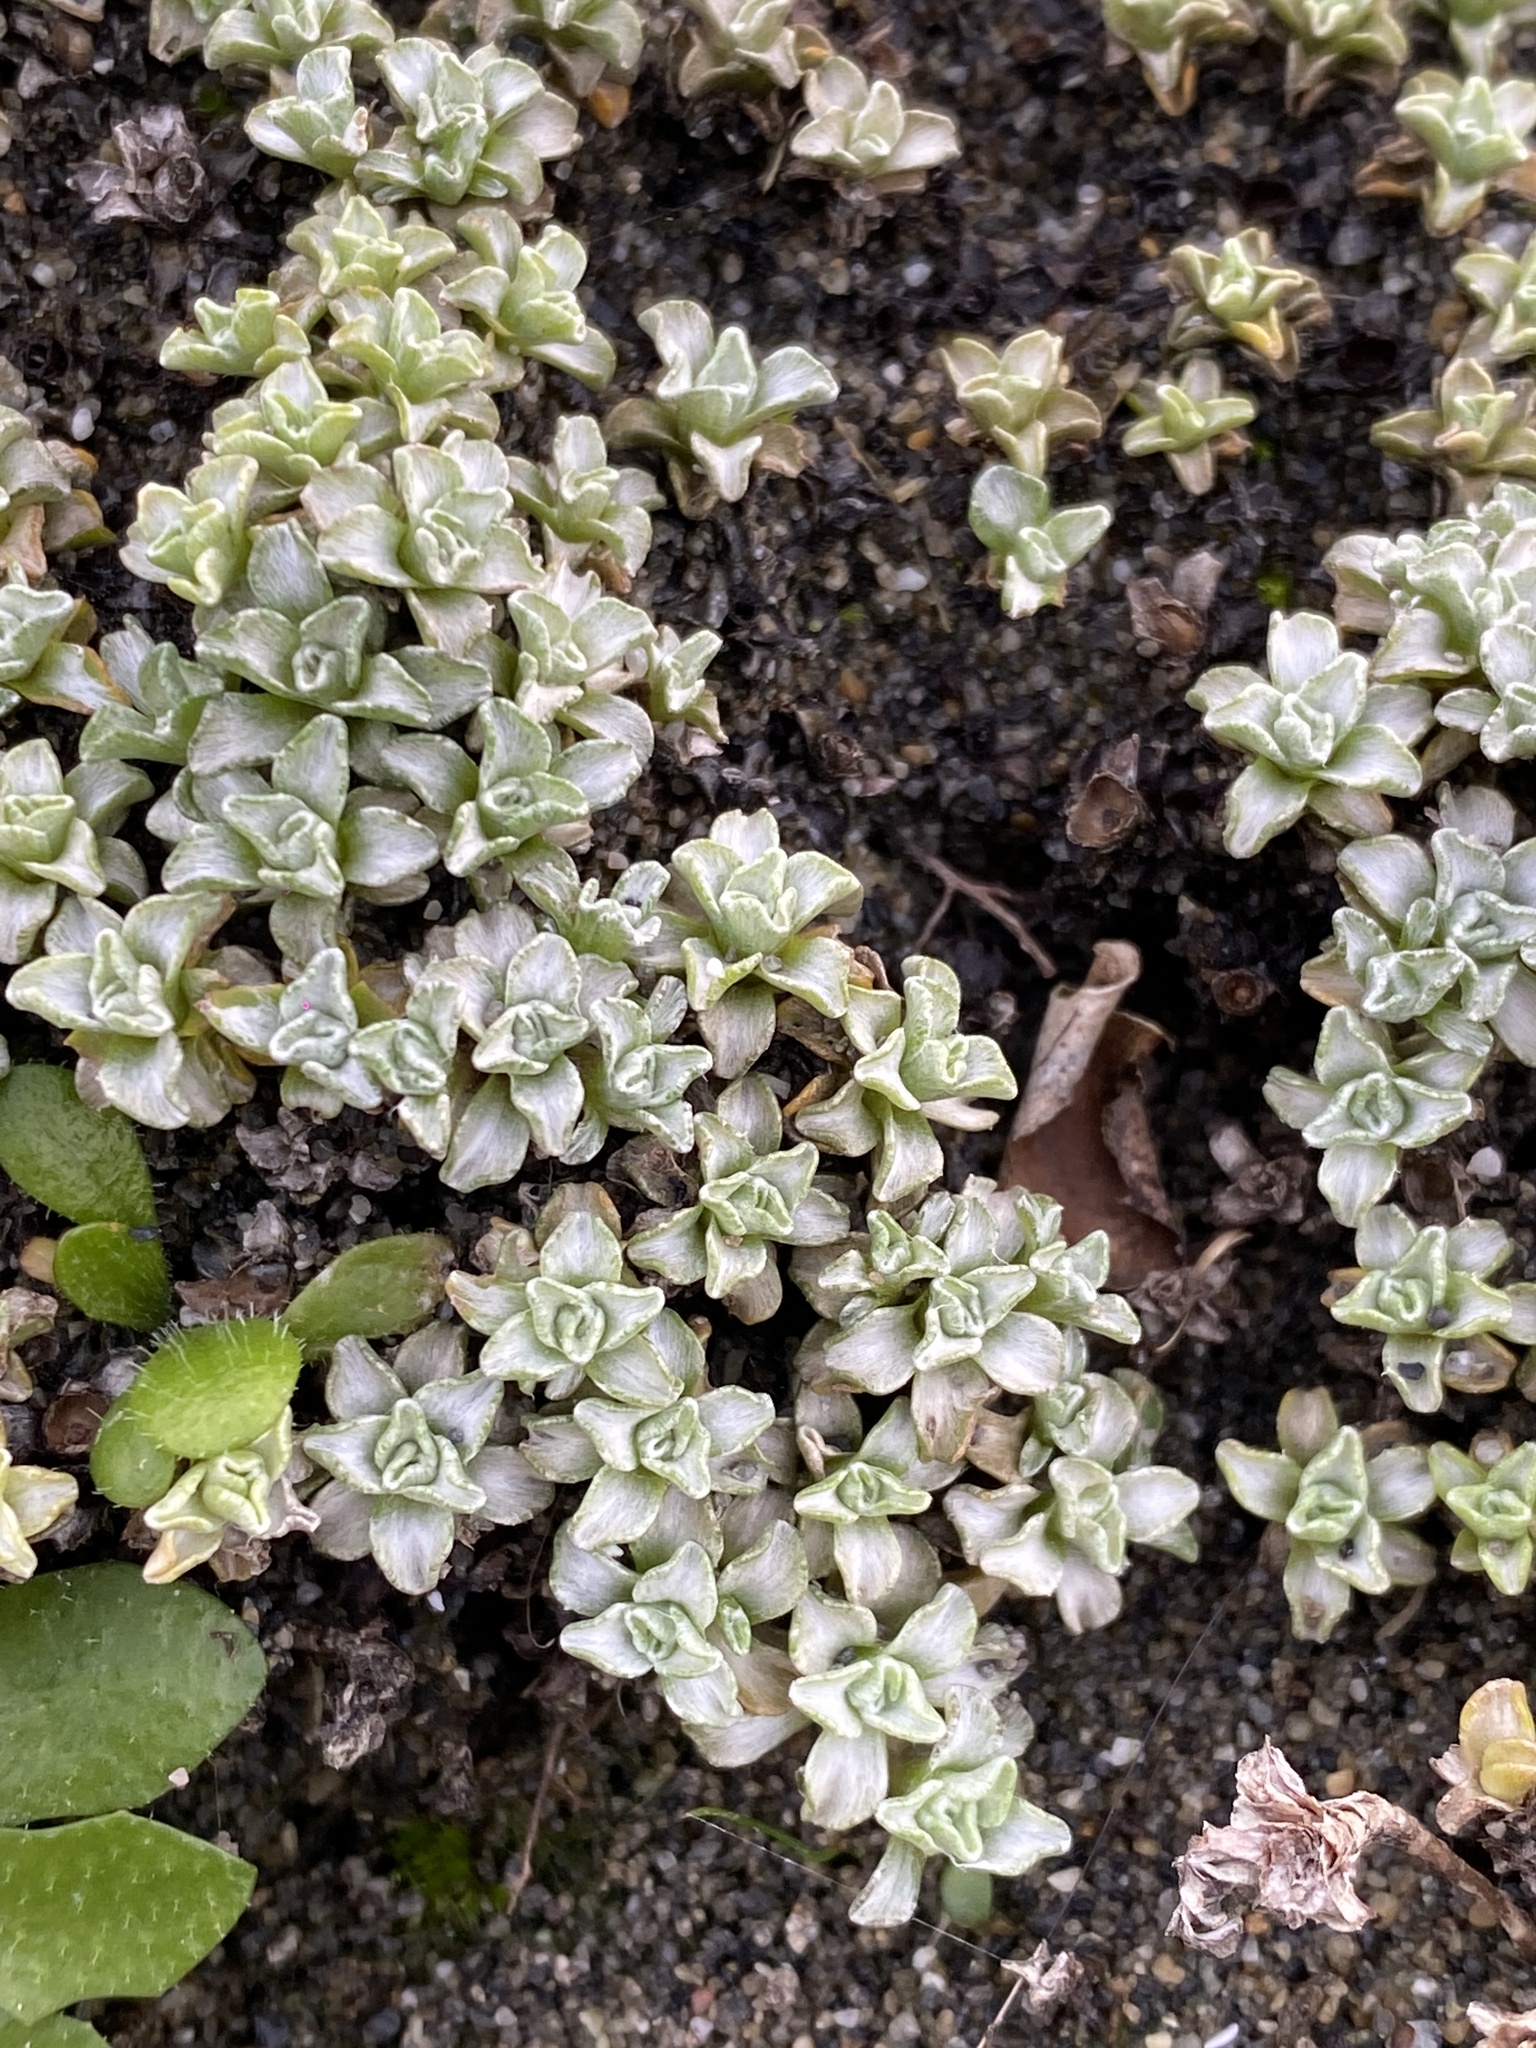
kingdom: Plantae
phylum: Tracheophyta
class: Magnoliopsida
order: Asterales
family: Asteraceae
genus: Raoulia
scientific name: Raoulia hookeri
